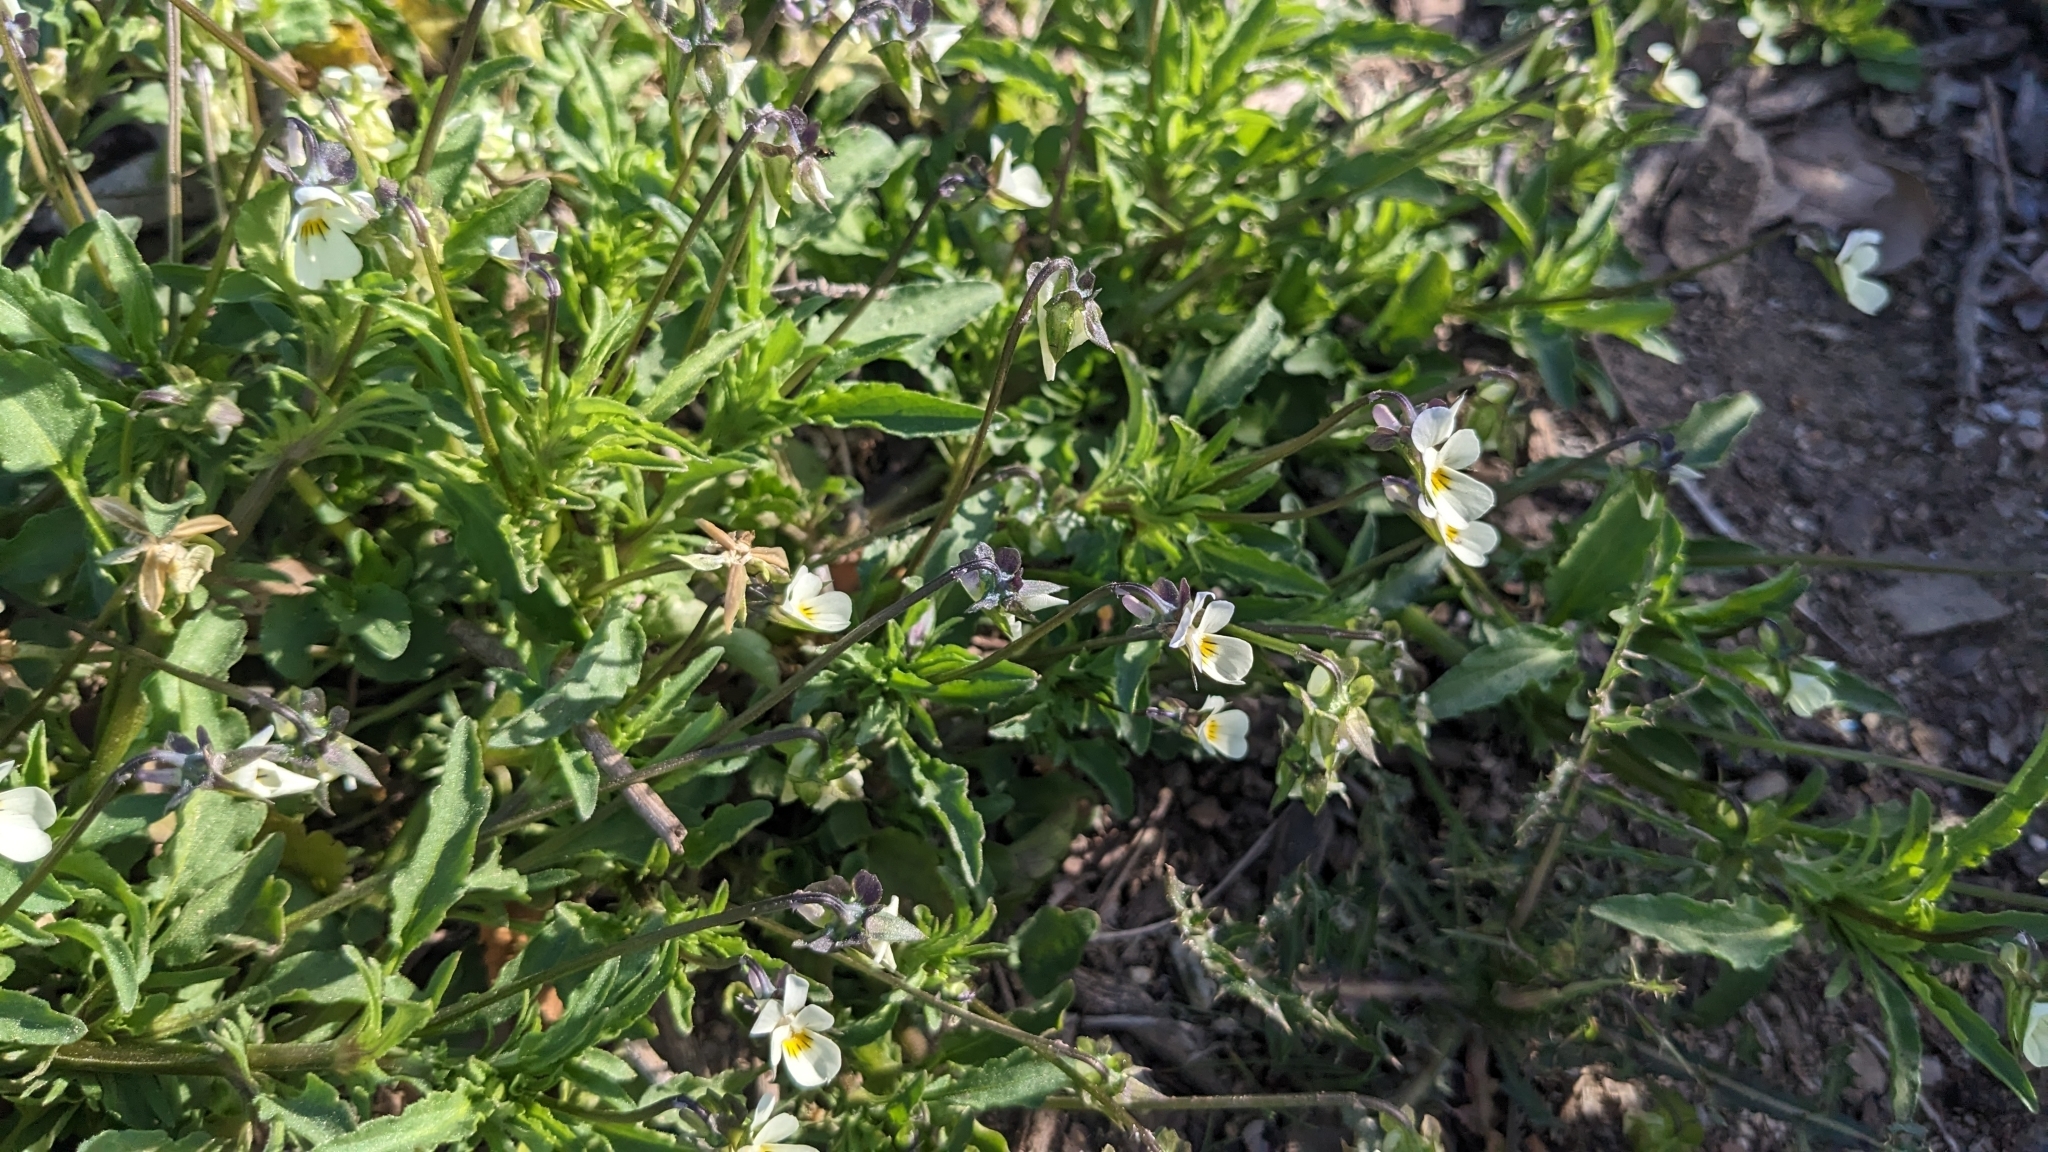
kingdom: Plantae
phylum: Tracheophyta
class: Magnoliopsida
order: Malpighiales
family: Violaceae
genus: Viola
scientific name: Viola arvensis
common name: Field pansy
